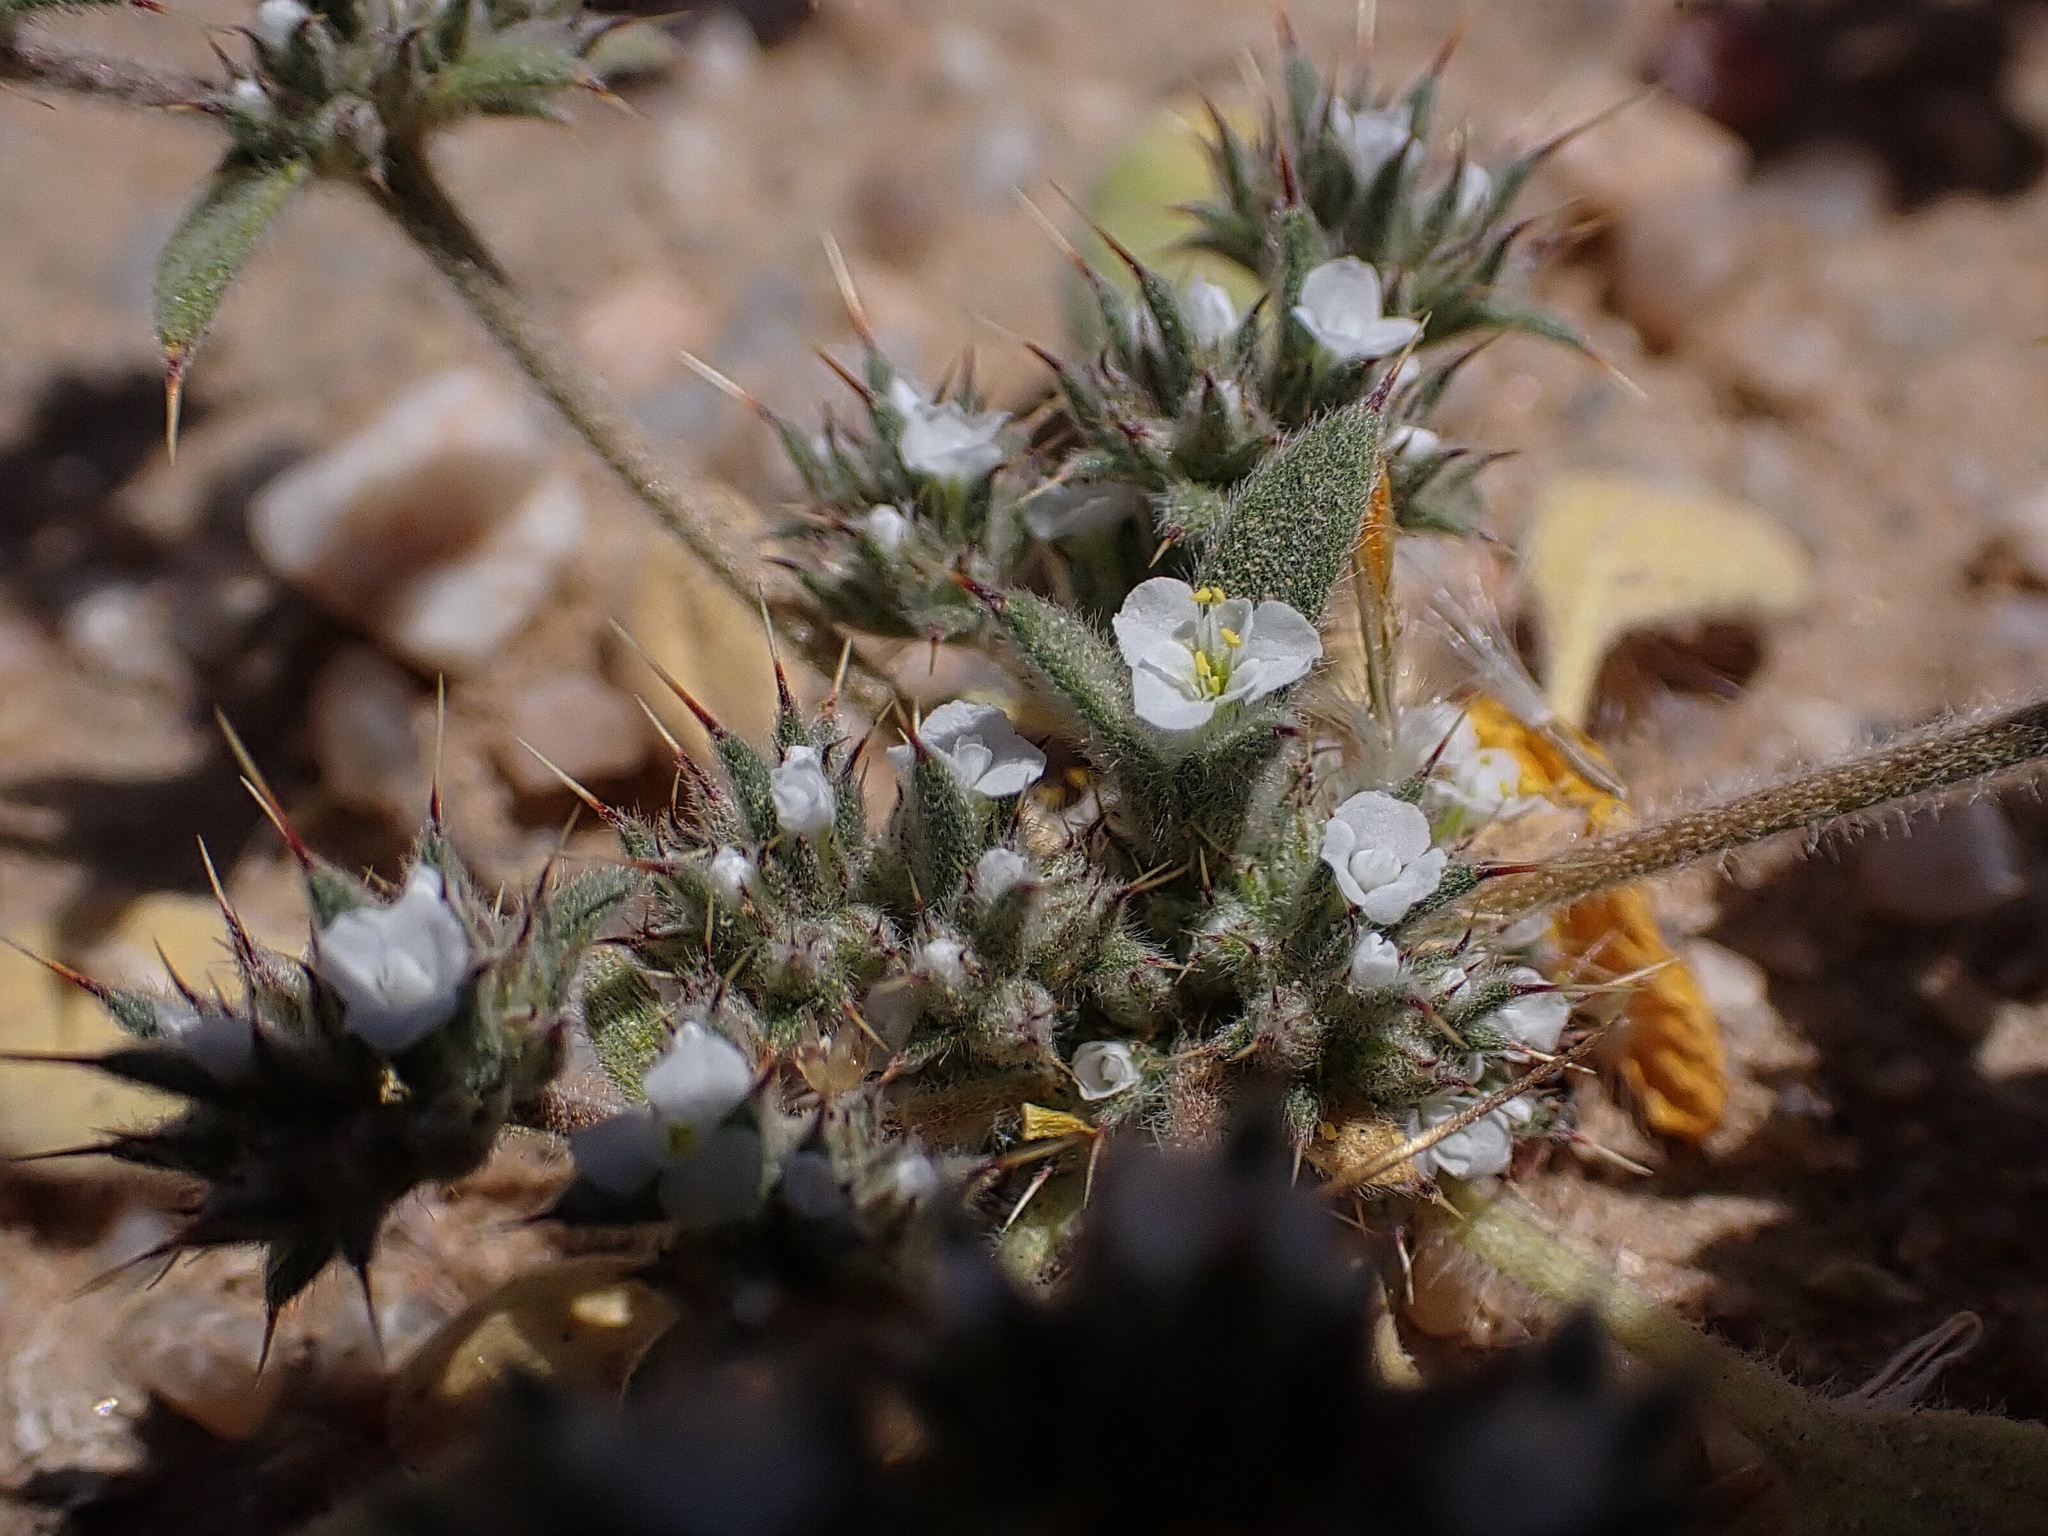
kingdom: Plantae
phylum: Tracheophyta
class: Magnoliopsida
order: Caryophyllales
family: Polygonaceae
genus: Chorizanthe
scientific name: Chorizanthe spinosa
